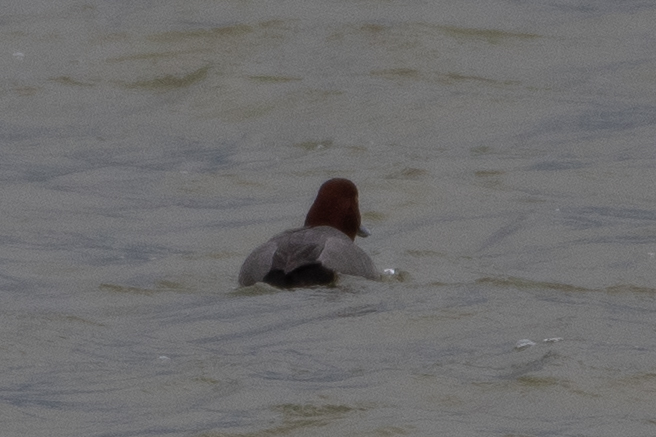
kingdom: Animalia
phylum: Chordata
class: Aves
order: Anseriformes
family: Anatidae
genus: Aythya
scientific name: Aythya americana
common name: Redhead
